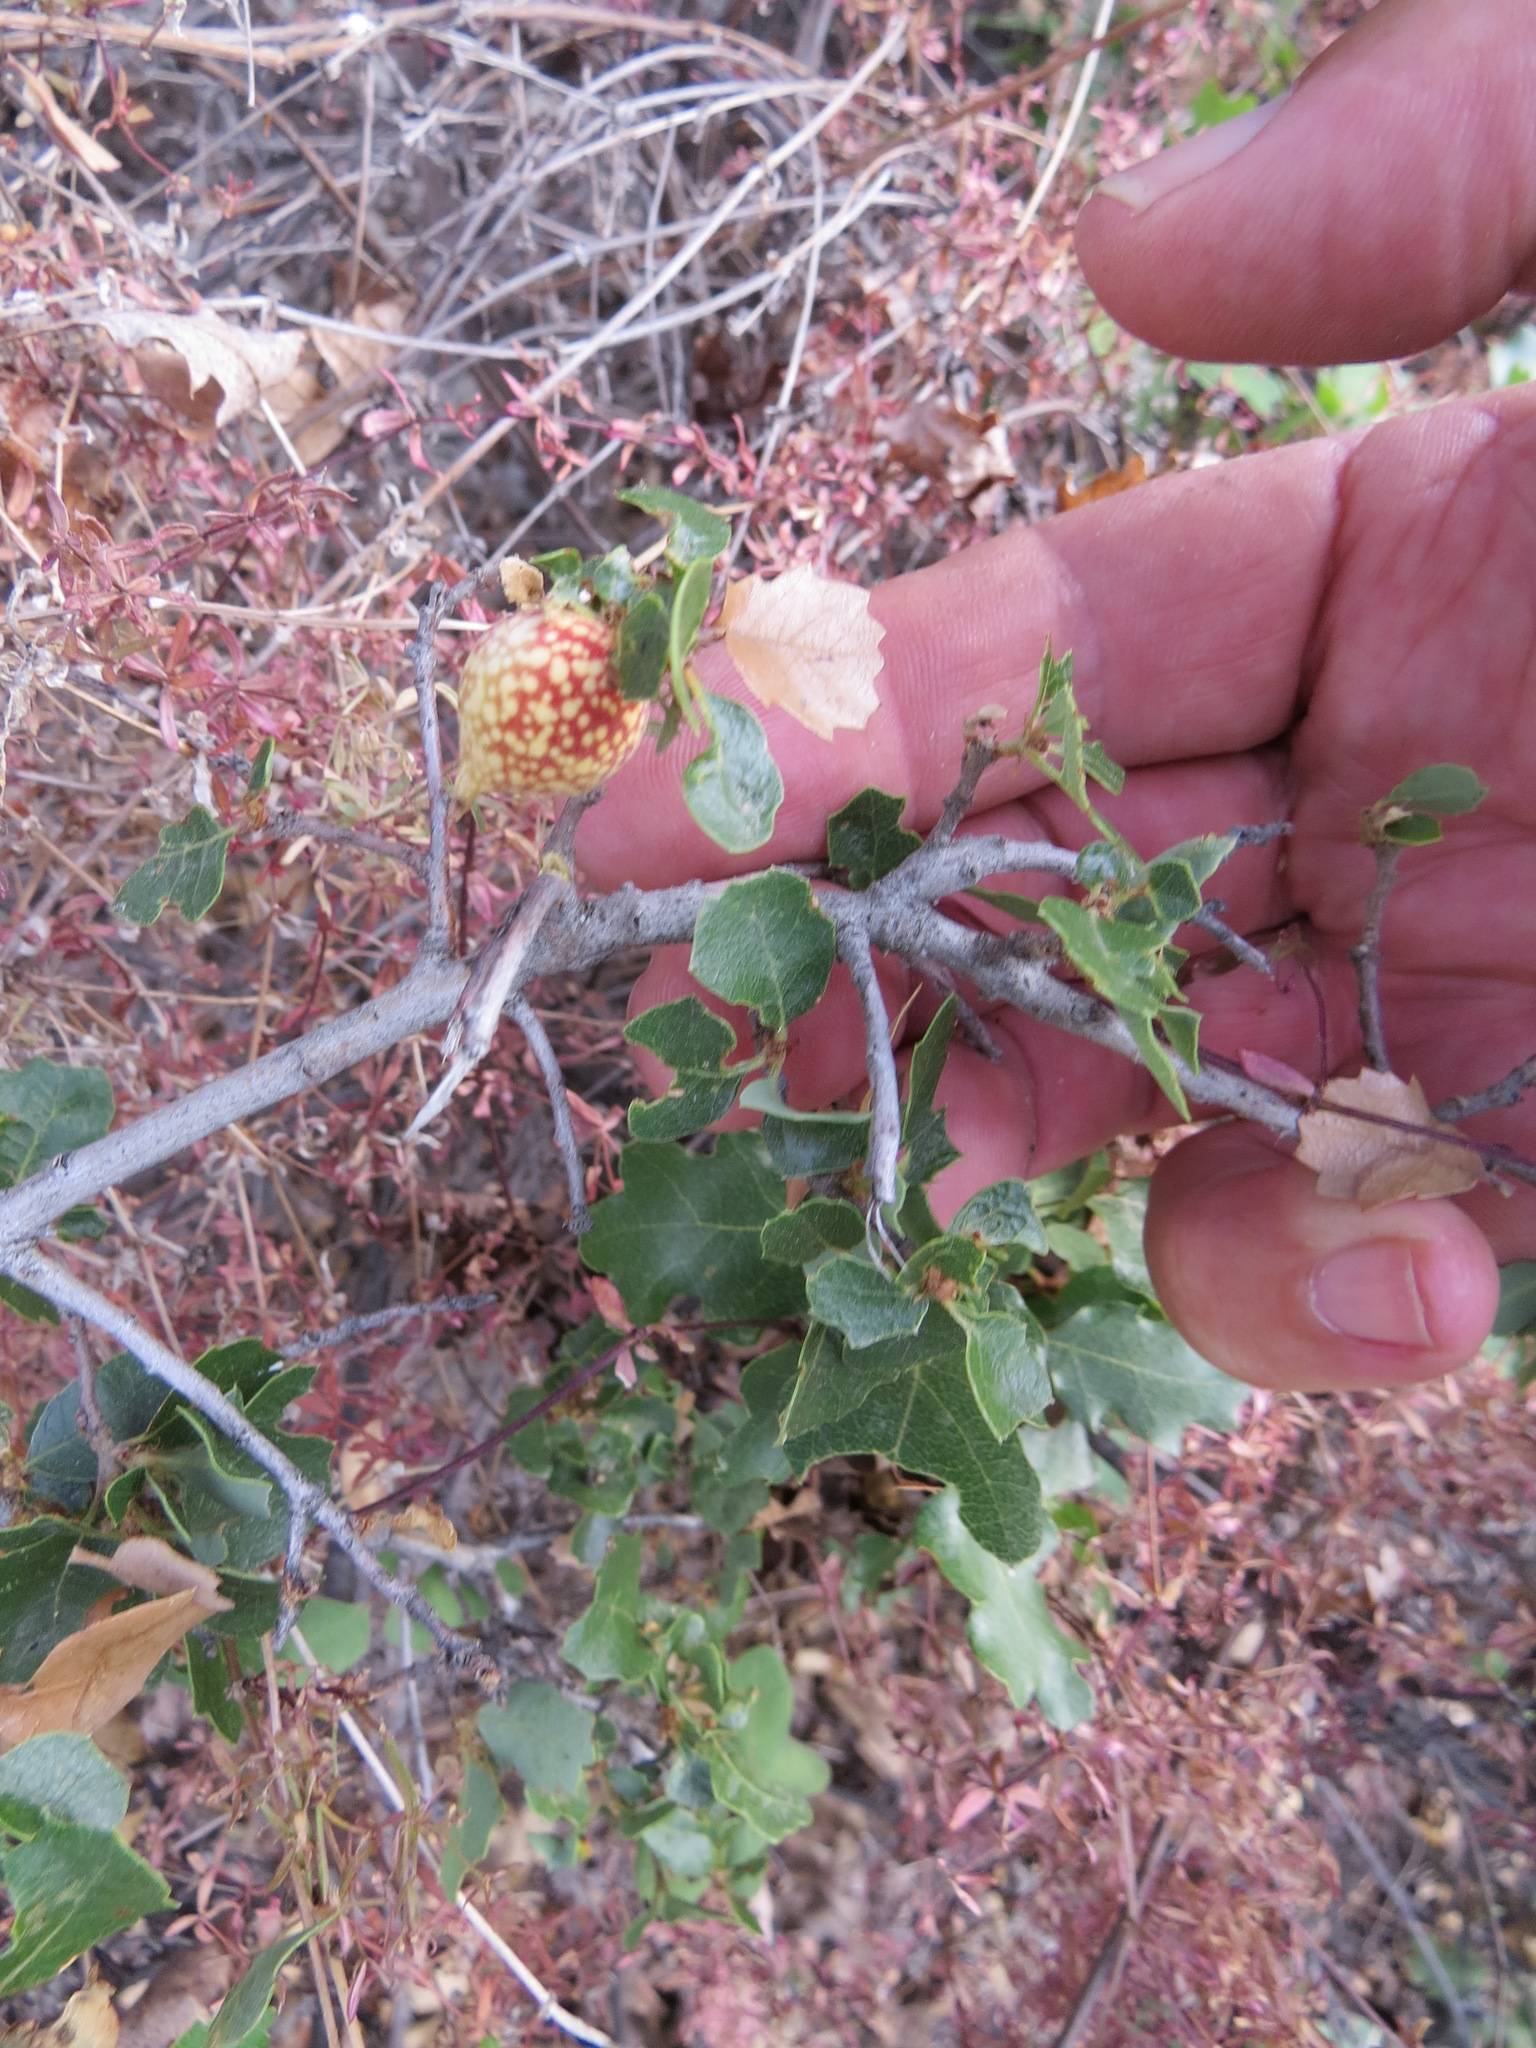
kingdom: Animalia
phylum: Arthropoda
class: Insecta
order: Hymenoptera
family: Cynipidae
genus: Burnettweldia
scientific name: Burnettweldia
